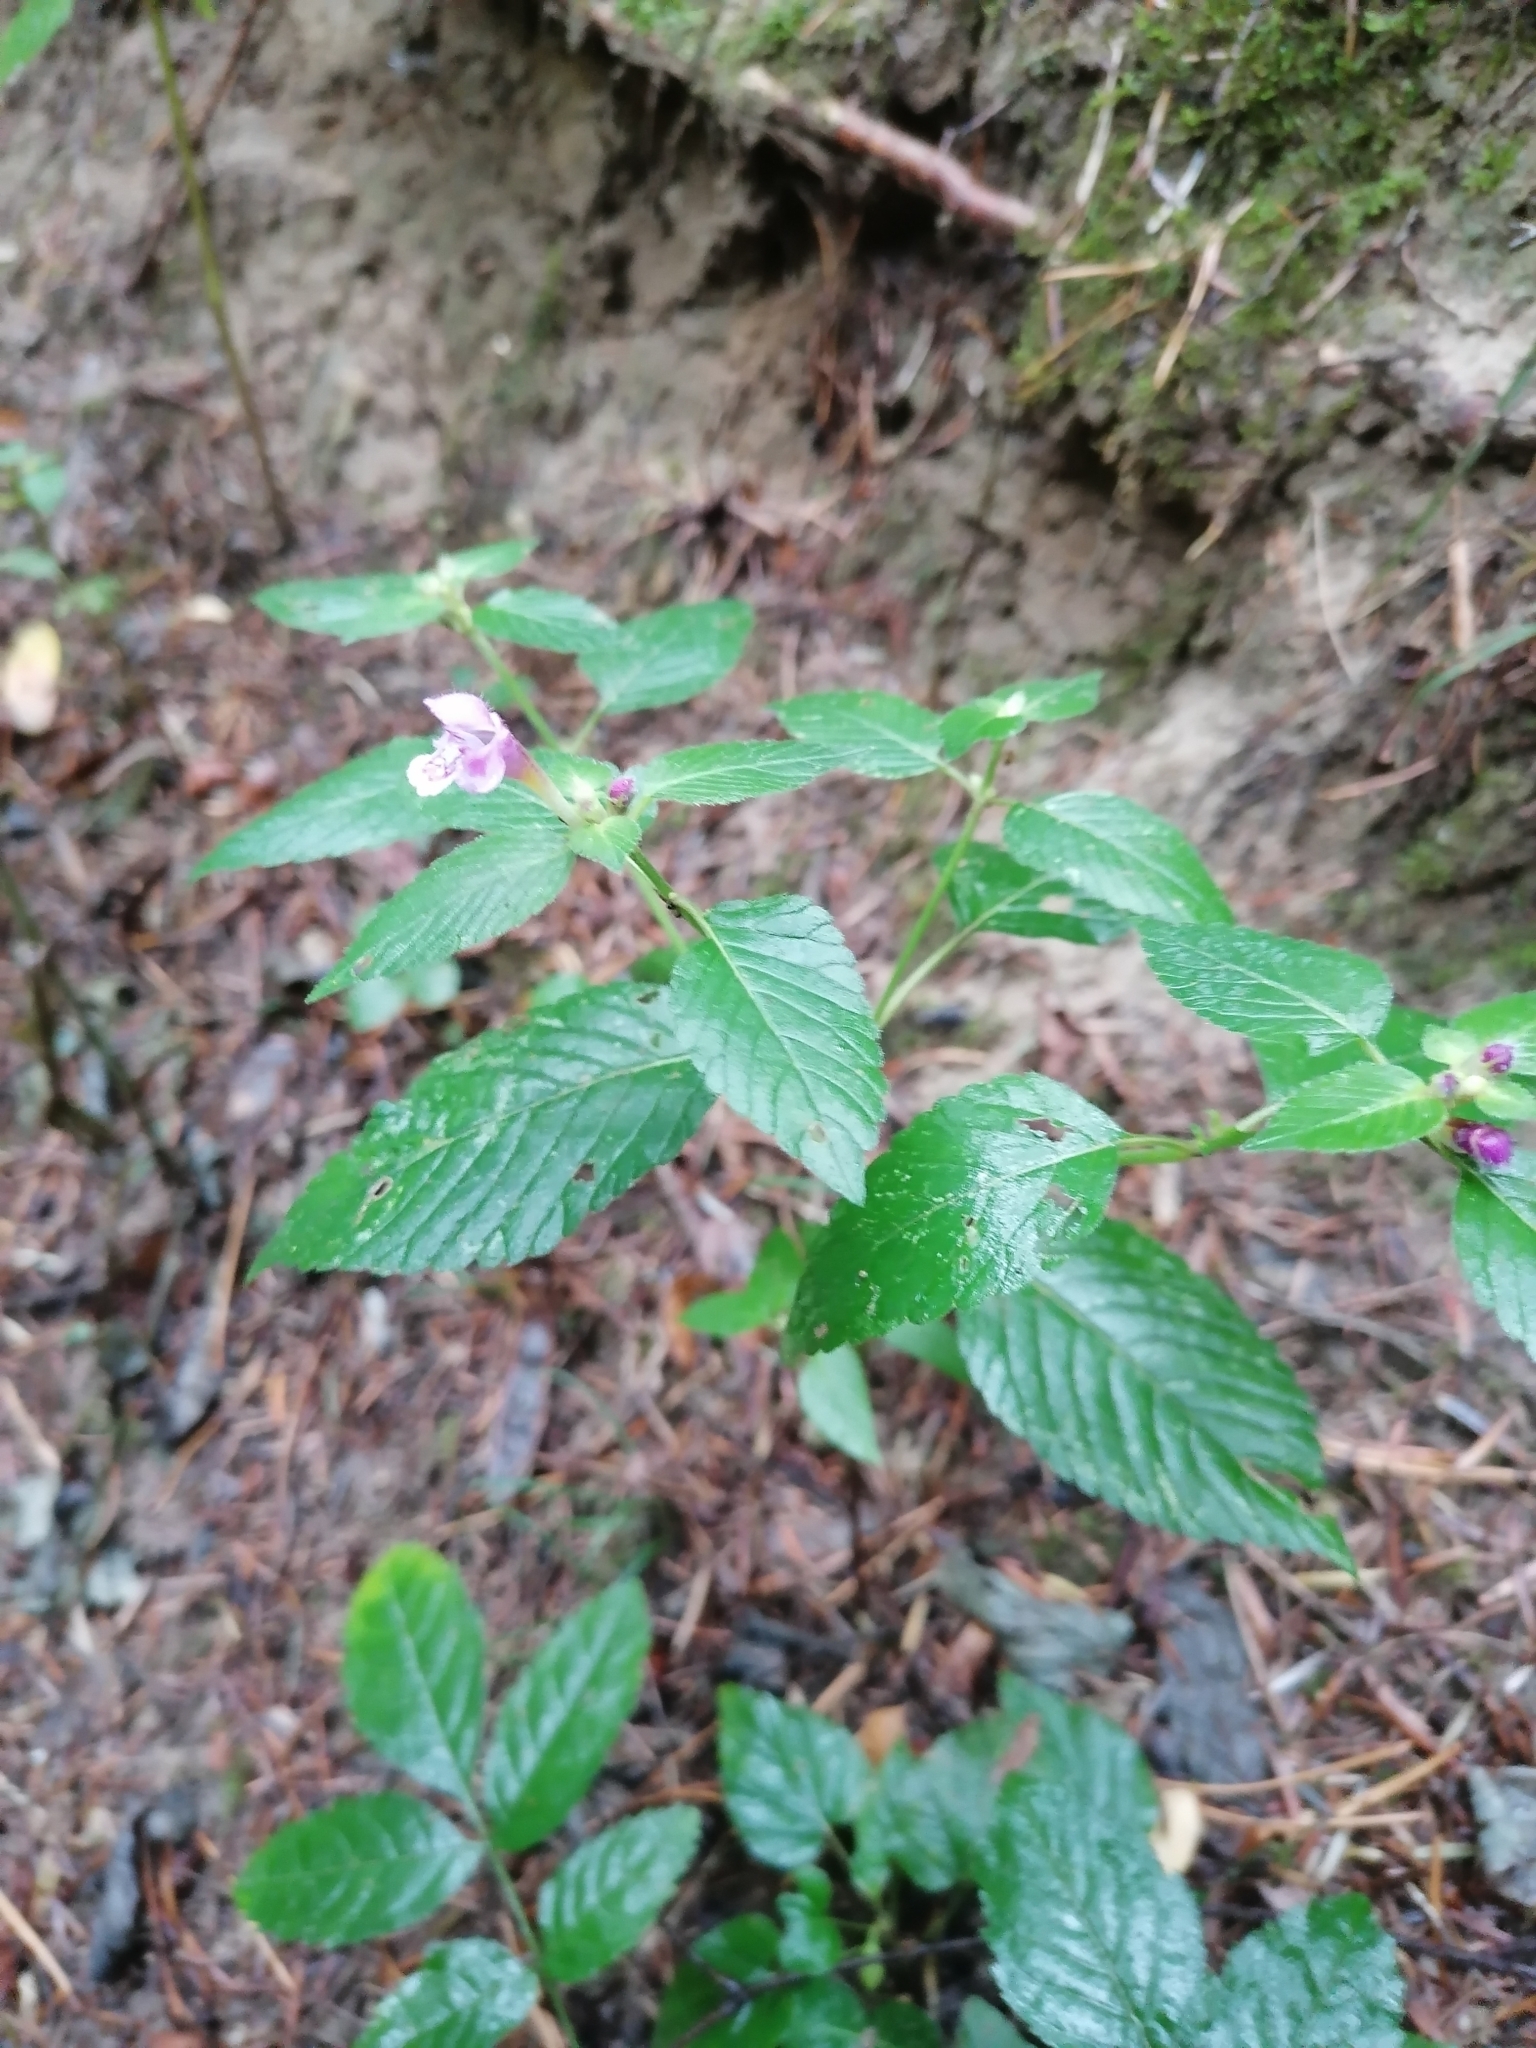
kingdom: Plantae
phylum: Tracheophyta
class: Magnoliopsida
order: Lamiales
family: Lamiaceae
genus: Galeopsis
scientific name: Galeopsis pubescens
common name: Downy hemp-nettle
